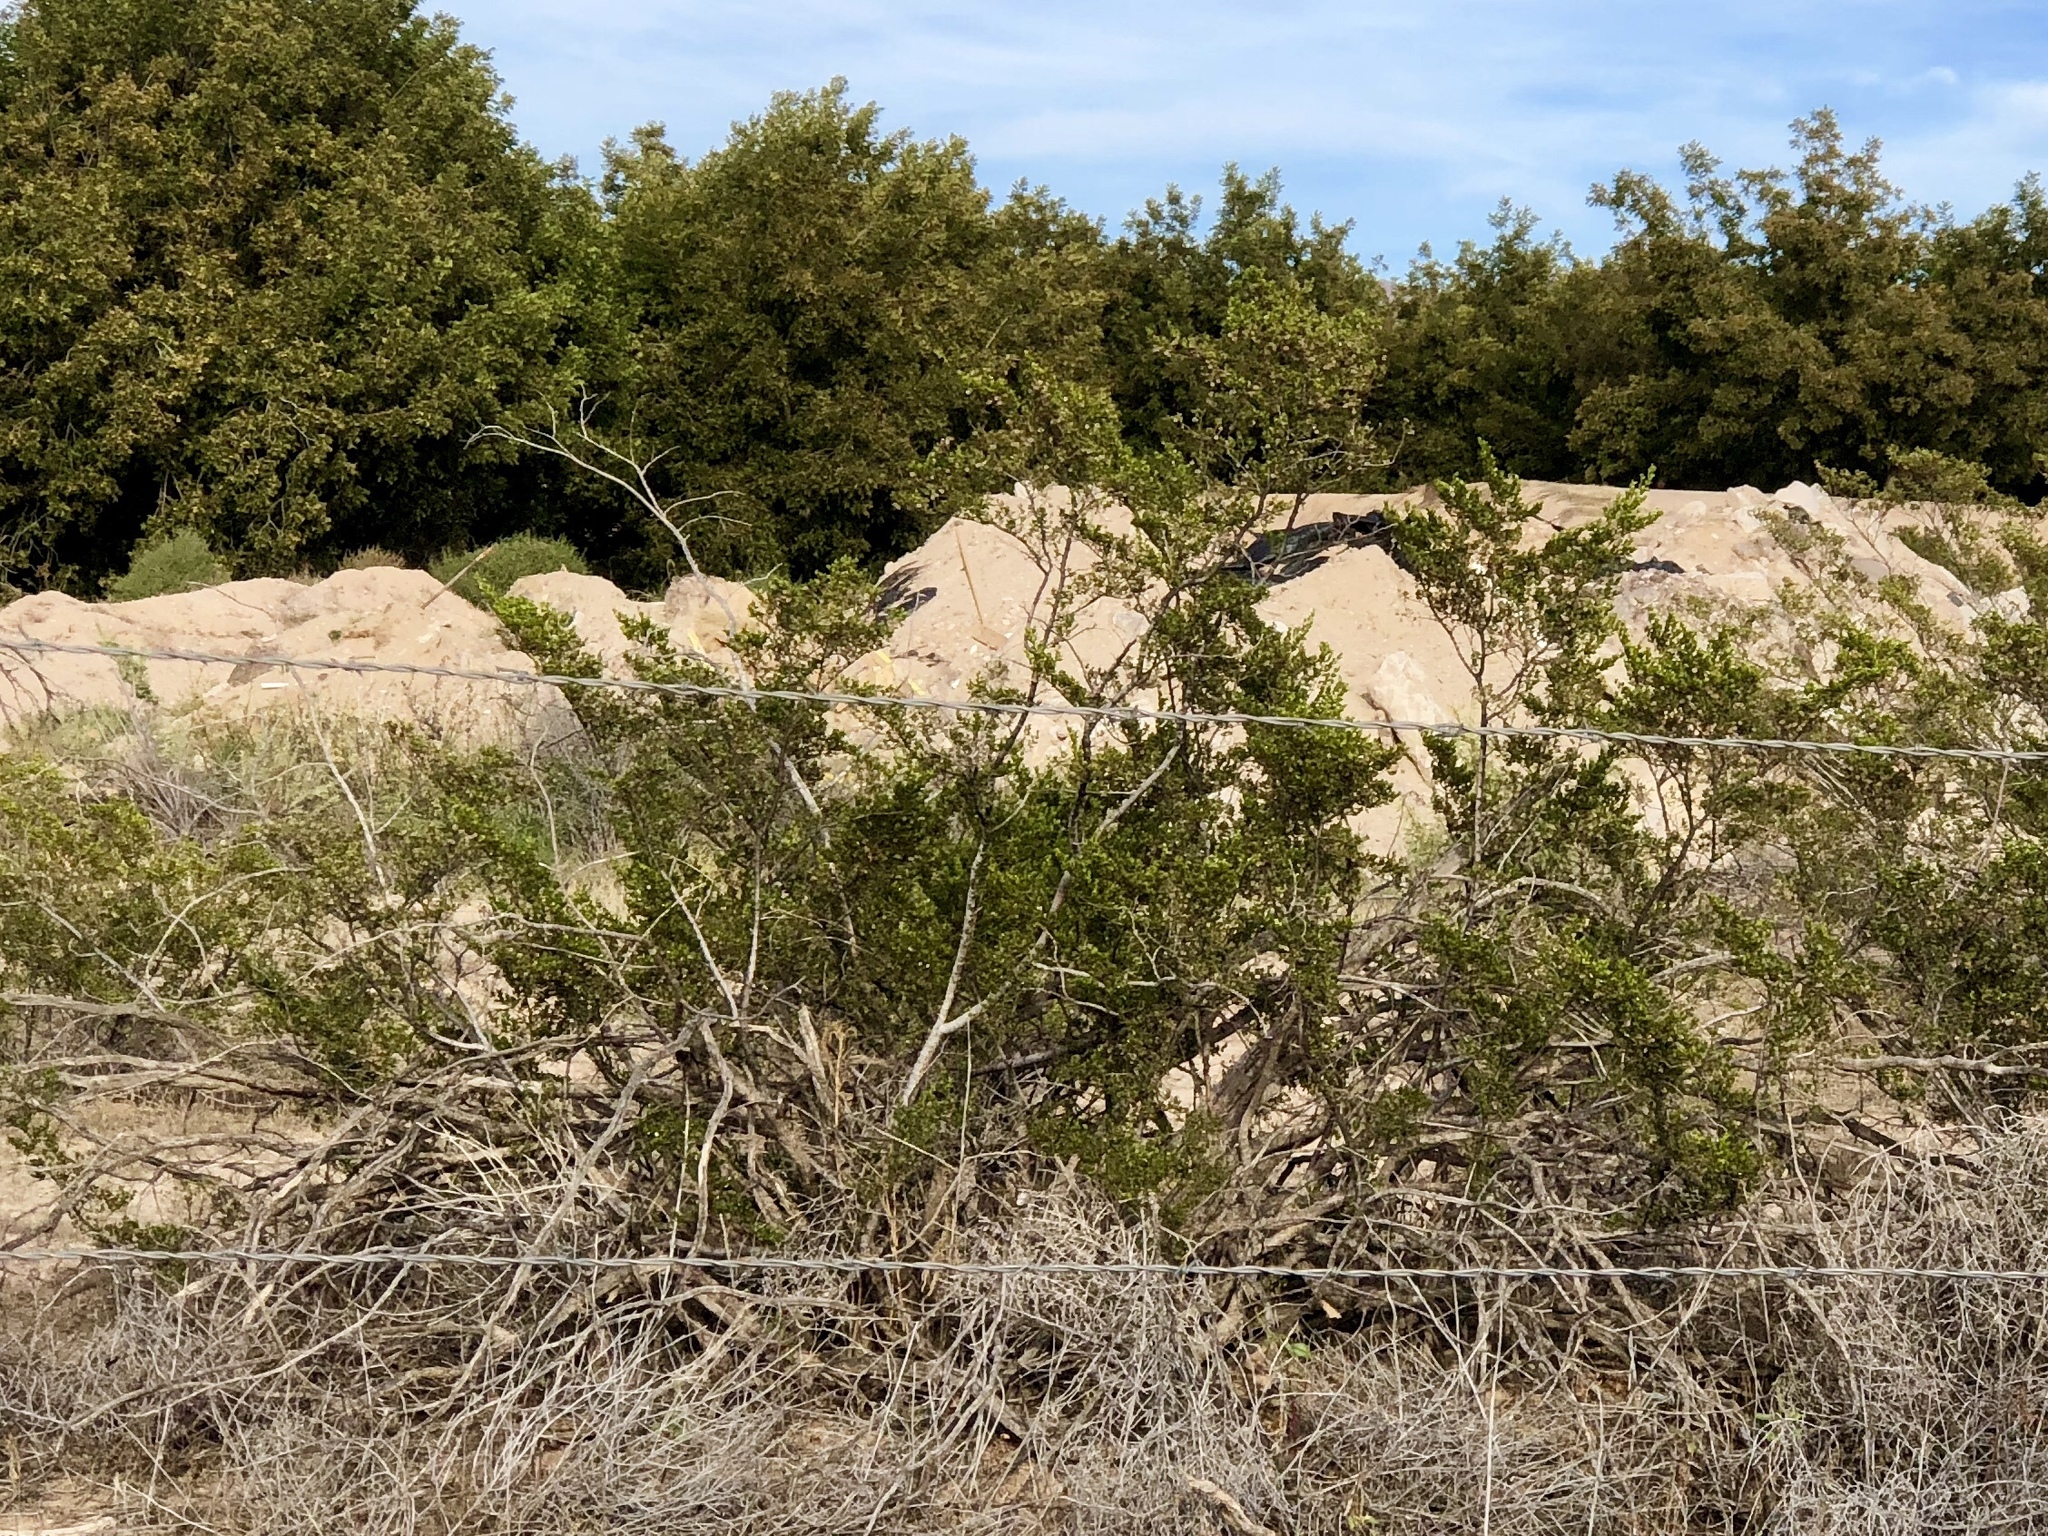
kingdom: Plantae
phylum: Tracheophyta
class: Magnoliopsida
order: Zygophyllales
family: Zygophyllaceae
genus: Larrea
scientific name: Larrea tridentata
